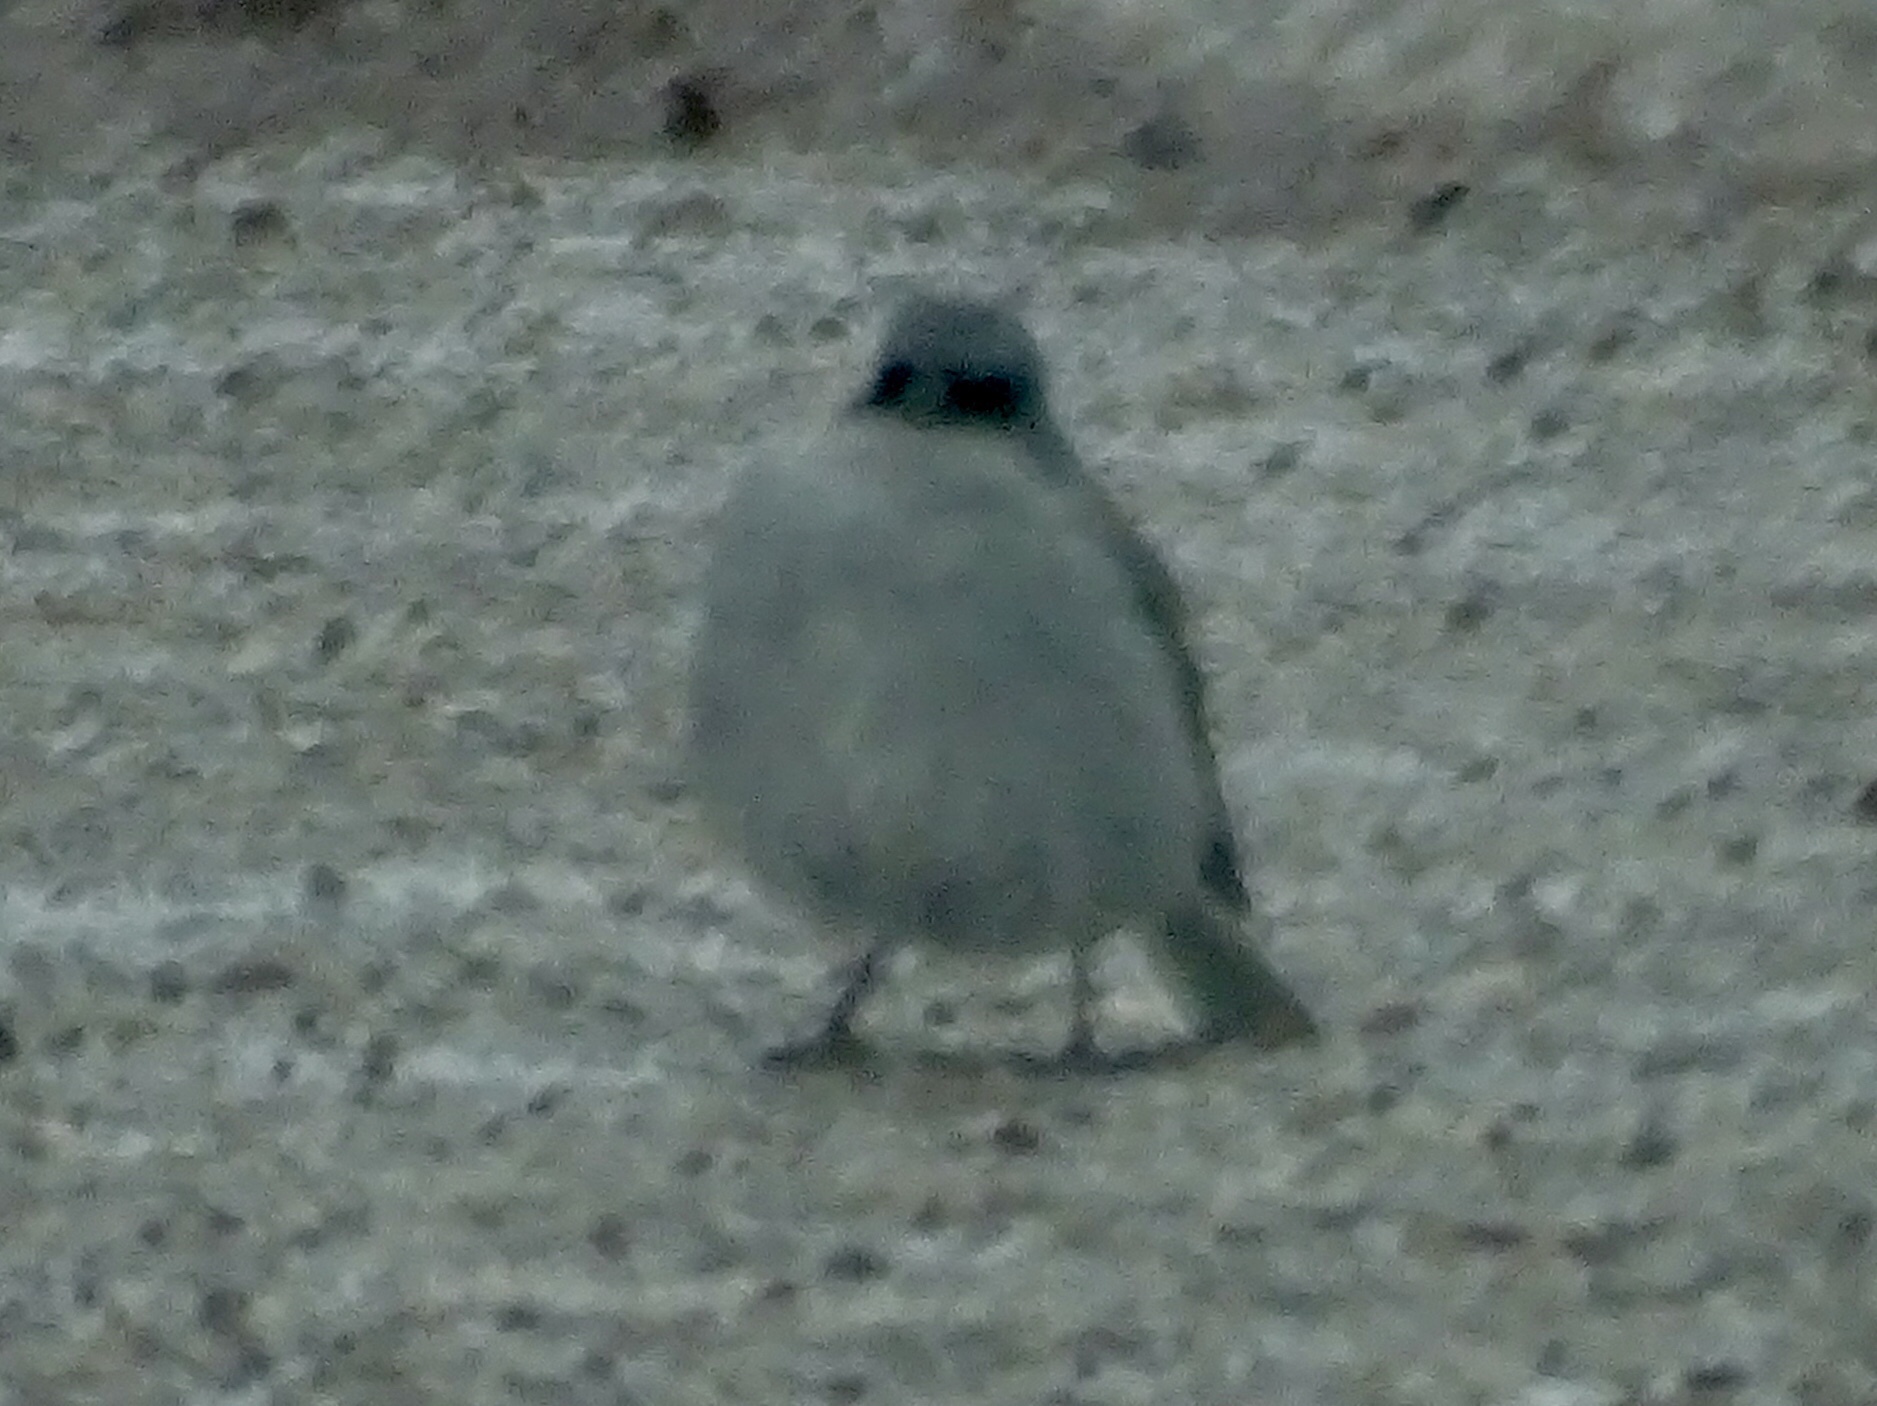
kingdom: Animalia
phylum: Chordata
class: Aves
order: Passeriformes
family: Passerellidae
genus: Junco
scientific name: Junco hyemalis
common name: Dark-eyed junco
